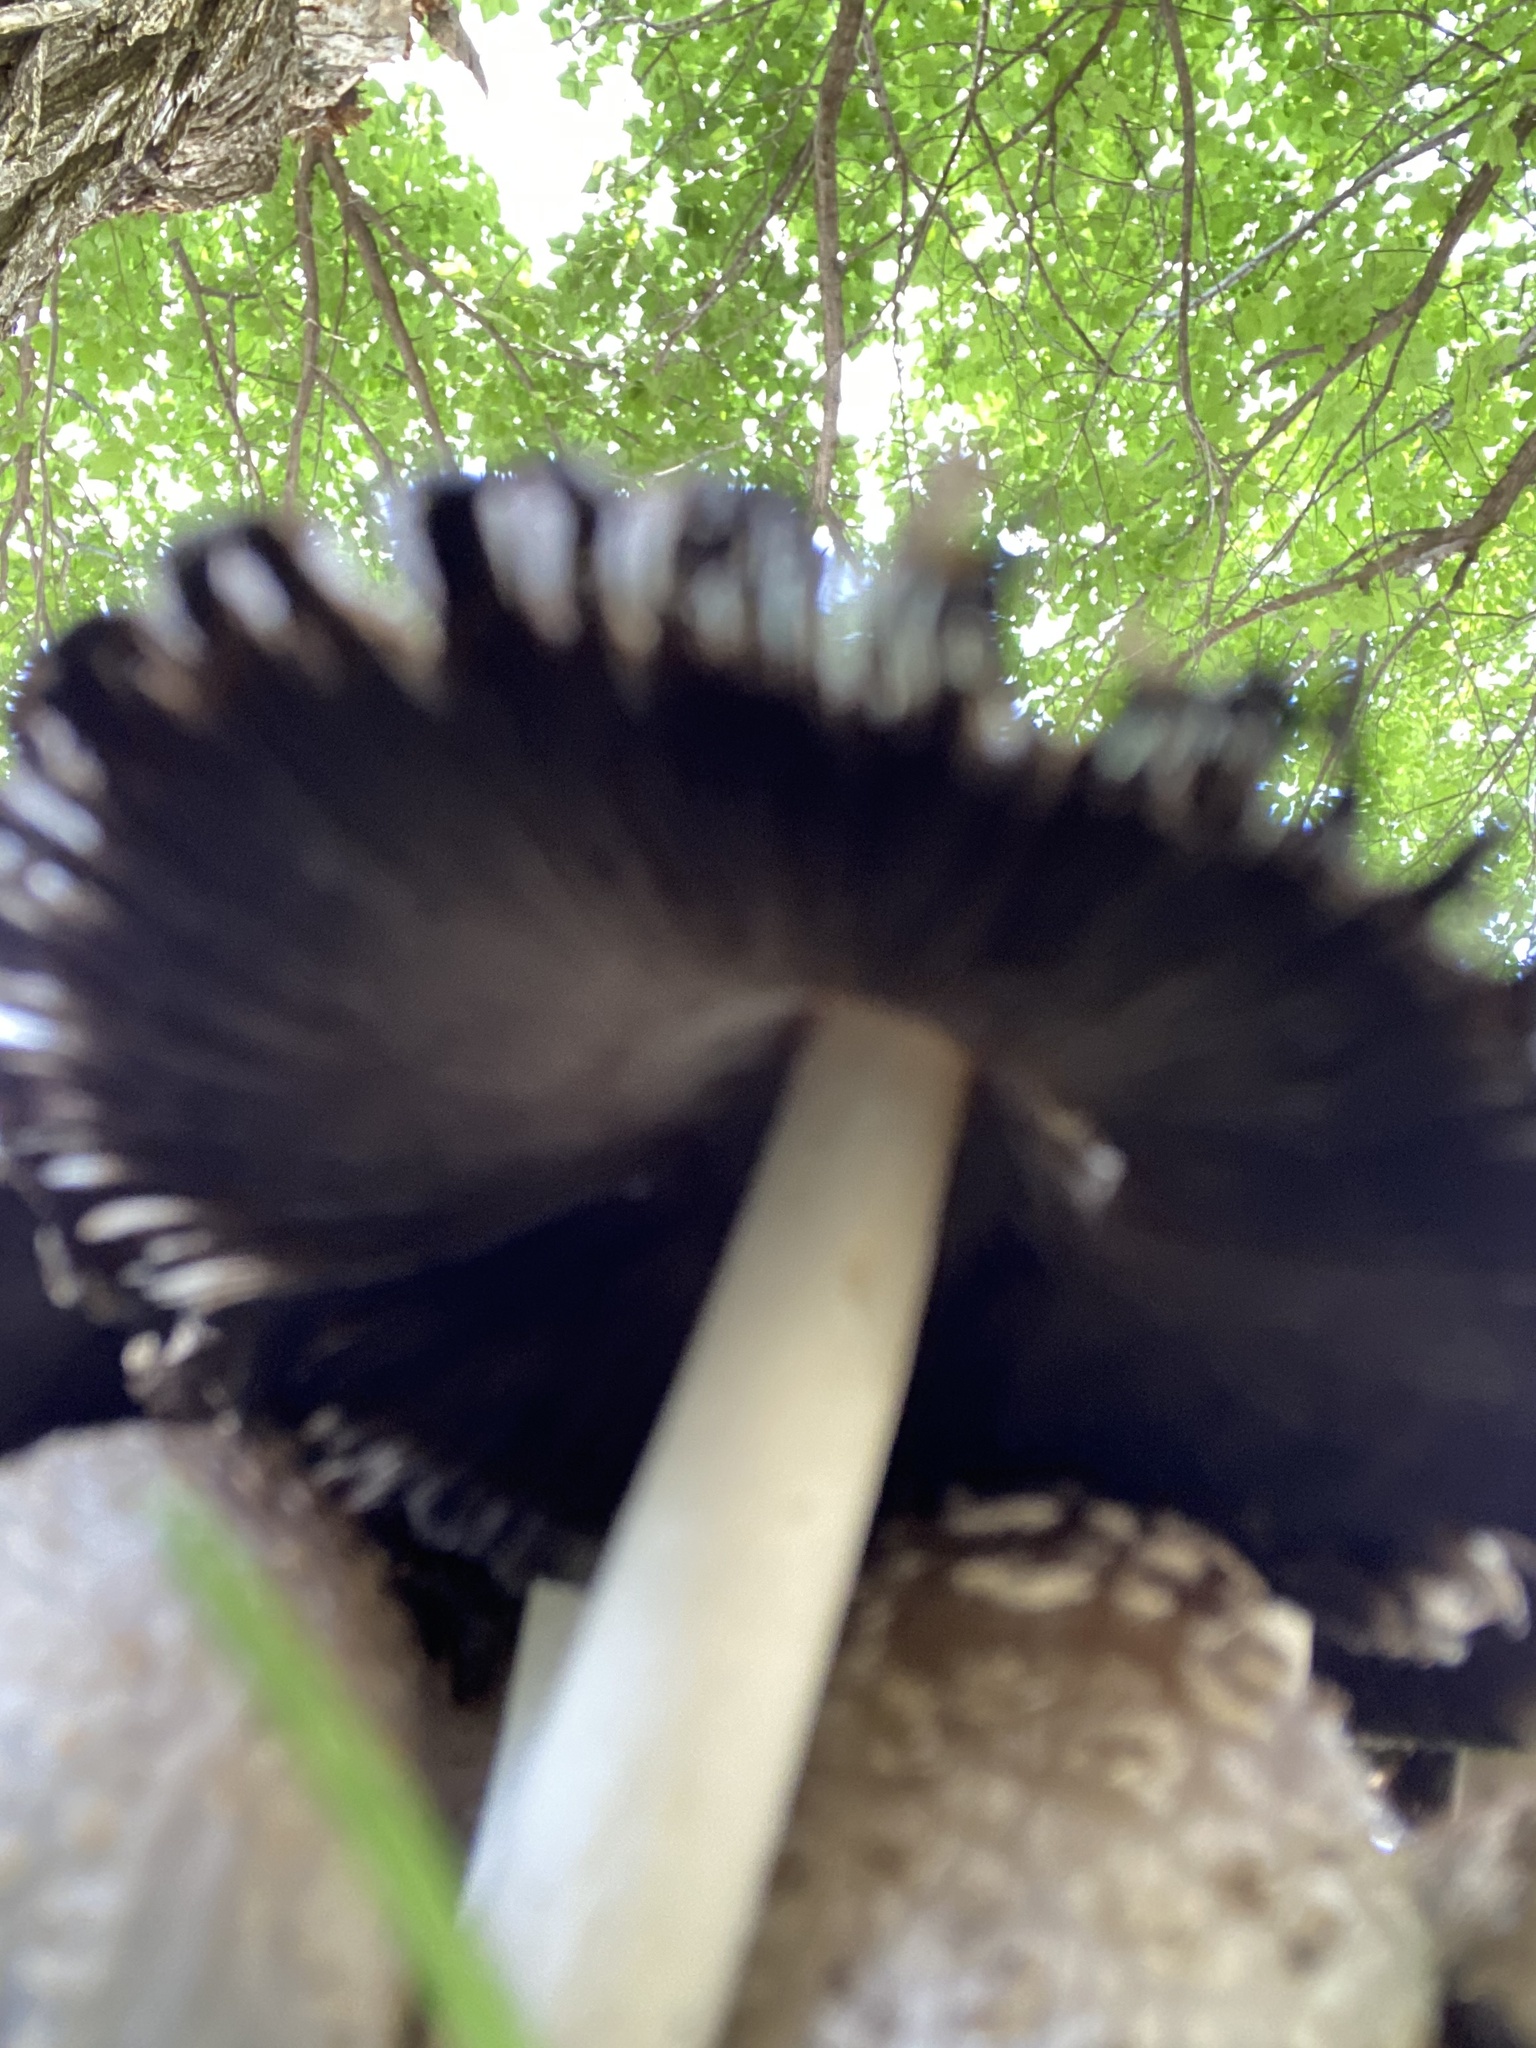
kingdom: Fungi
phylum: Basidiomycota
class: Agaricomycetes
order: Agaricales
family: Psathyrellaceae
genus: Coprinopsis
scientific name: Coprinopsis variegata
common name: Scaly ink cap
